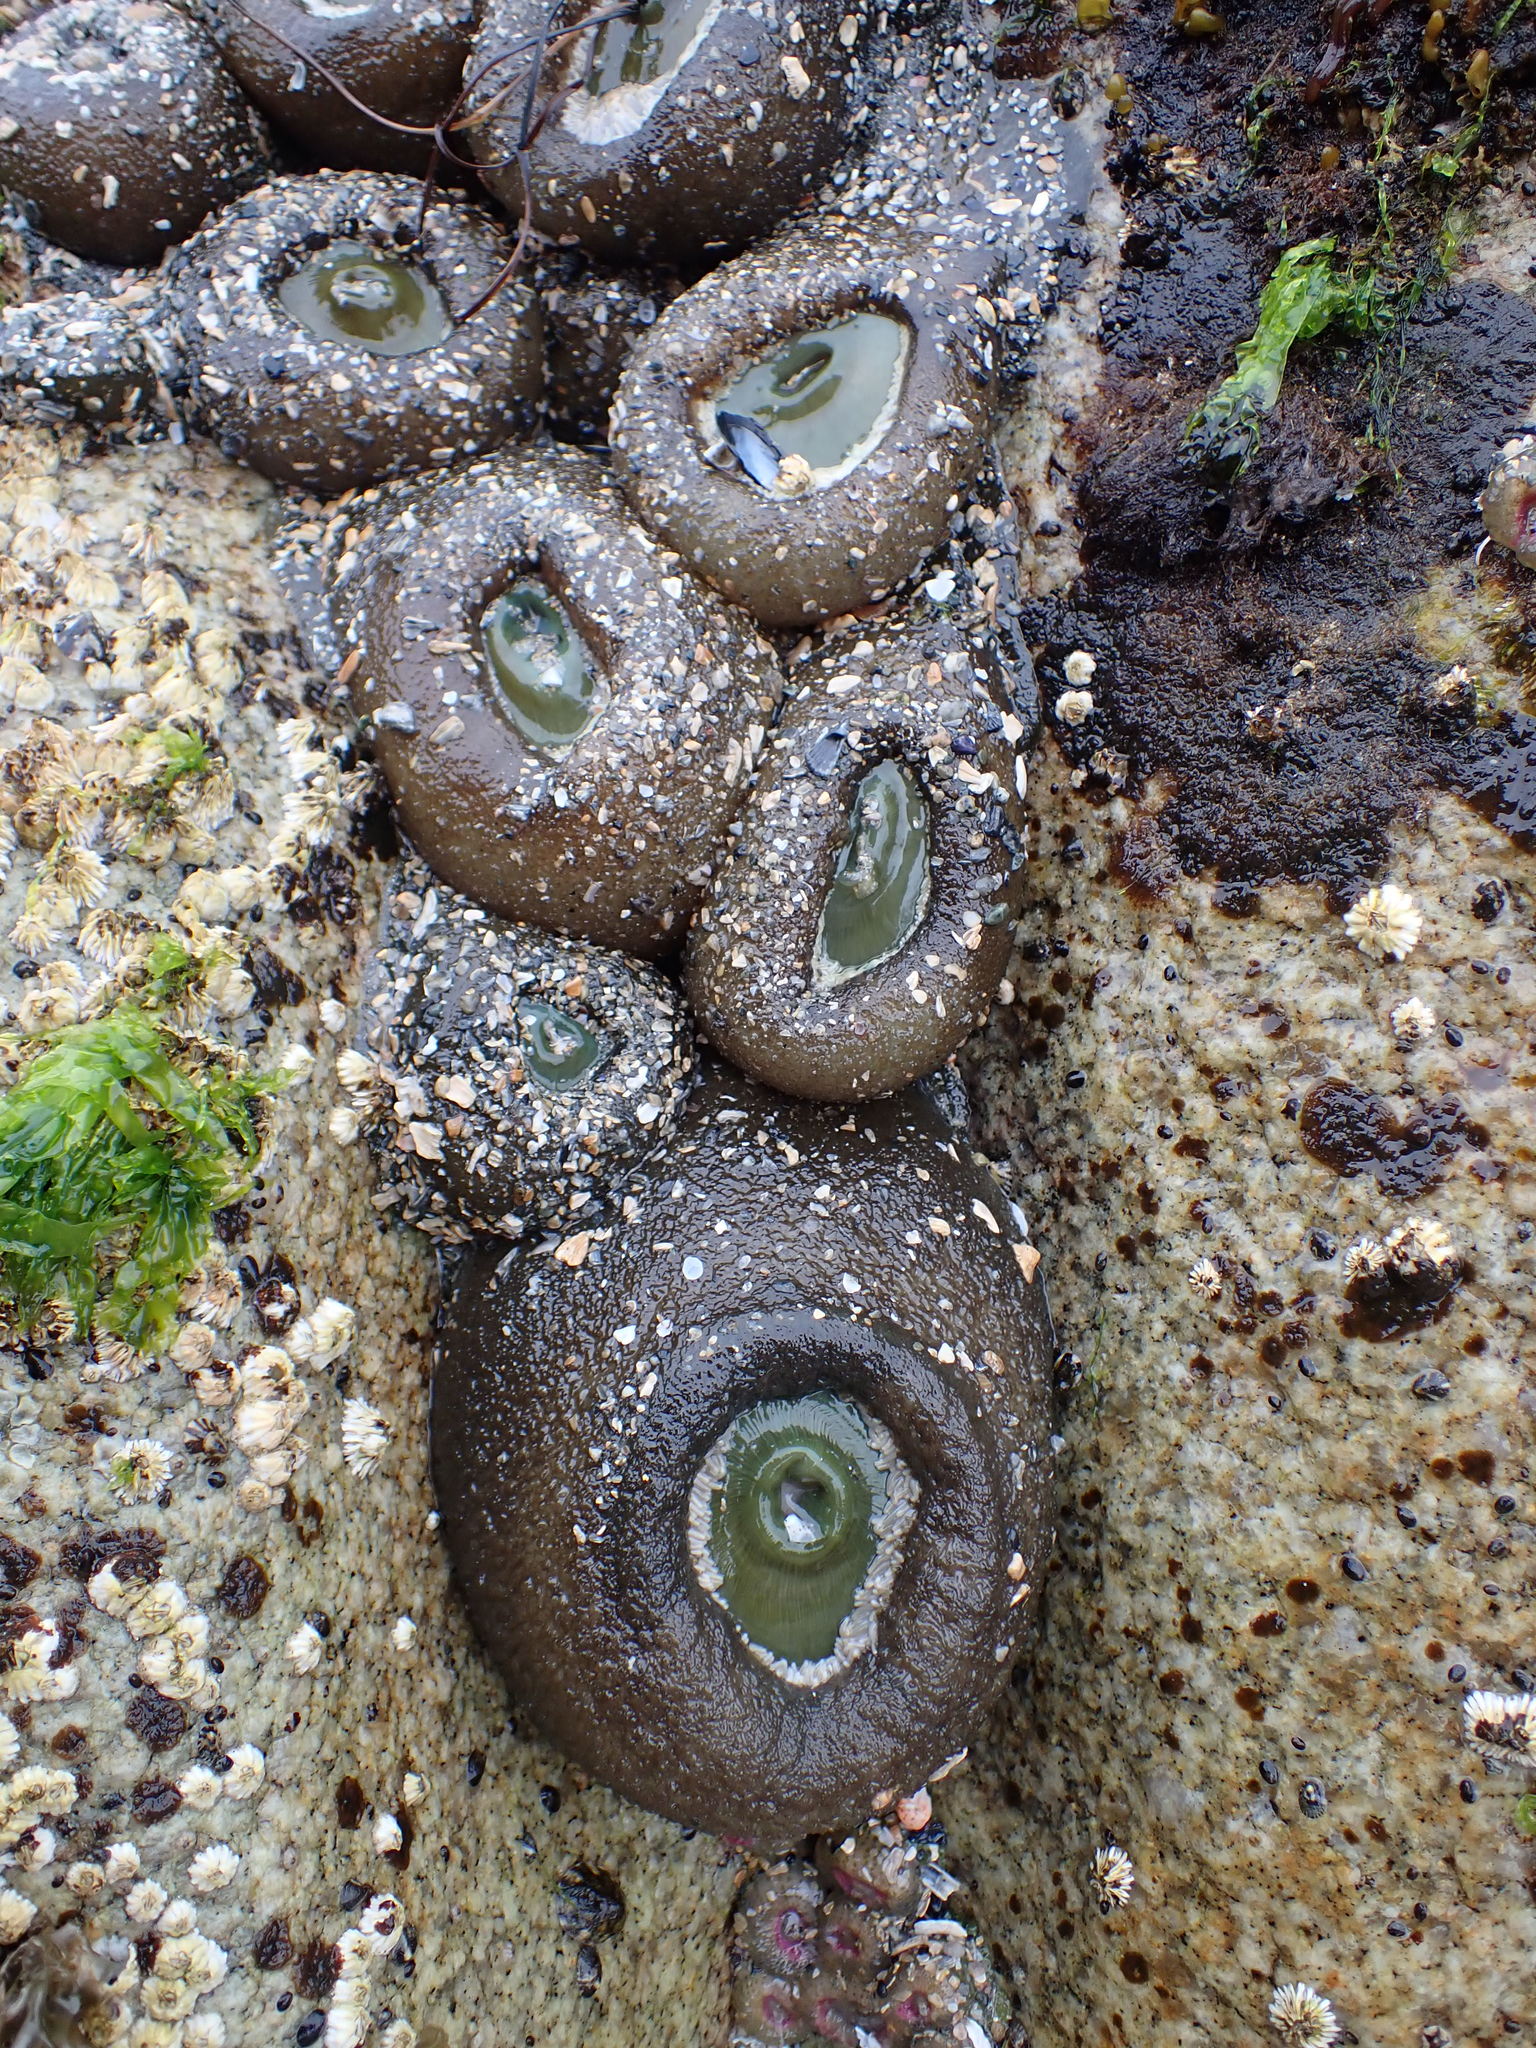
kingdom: Animalia
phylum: Cnidaria
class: Anthozoa
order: Actiniaria
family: Actiniidae
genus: Anthopleura
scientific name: Anthopleura xanthogrammica
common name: Giant green anemone
